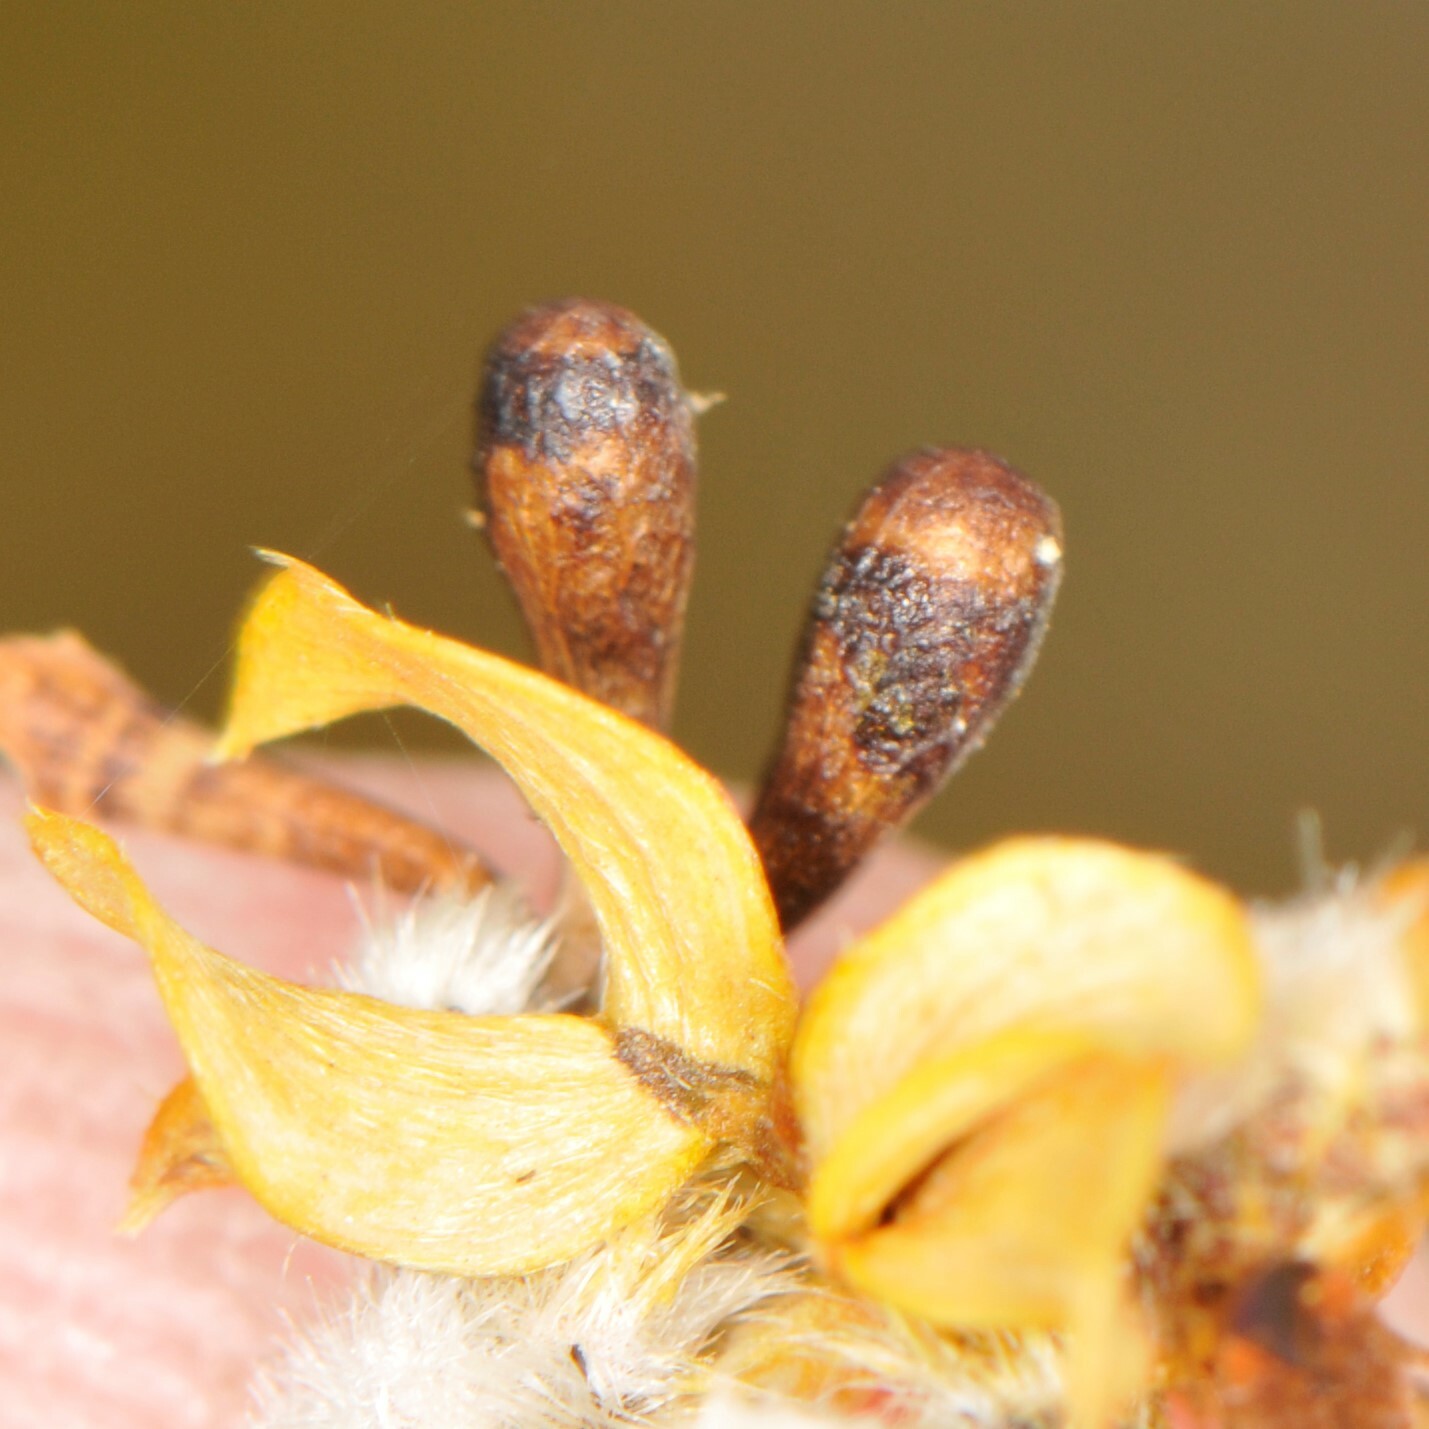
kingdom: Animalia
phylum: Arthropoda
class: Insecta
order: Diptera
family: Cecidomyiidae
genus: Asphondylia
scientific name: Asphondylia clavata
